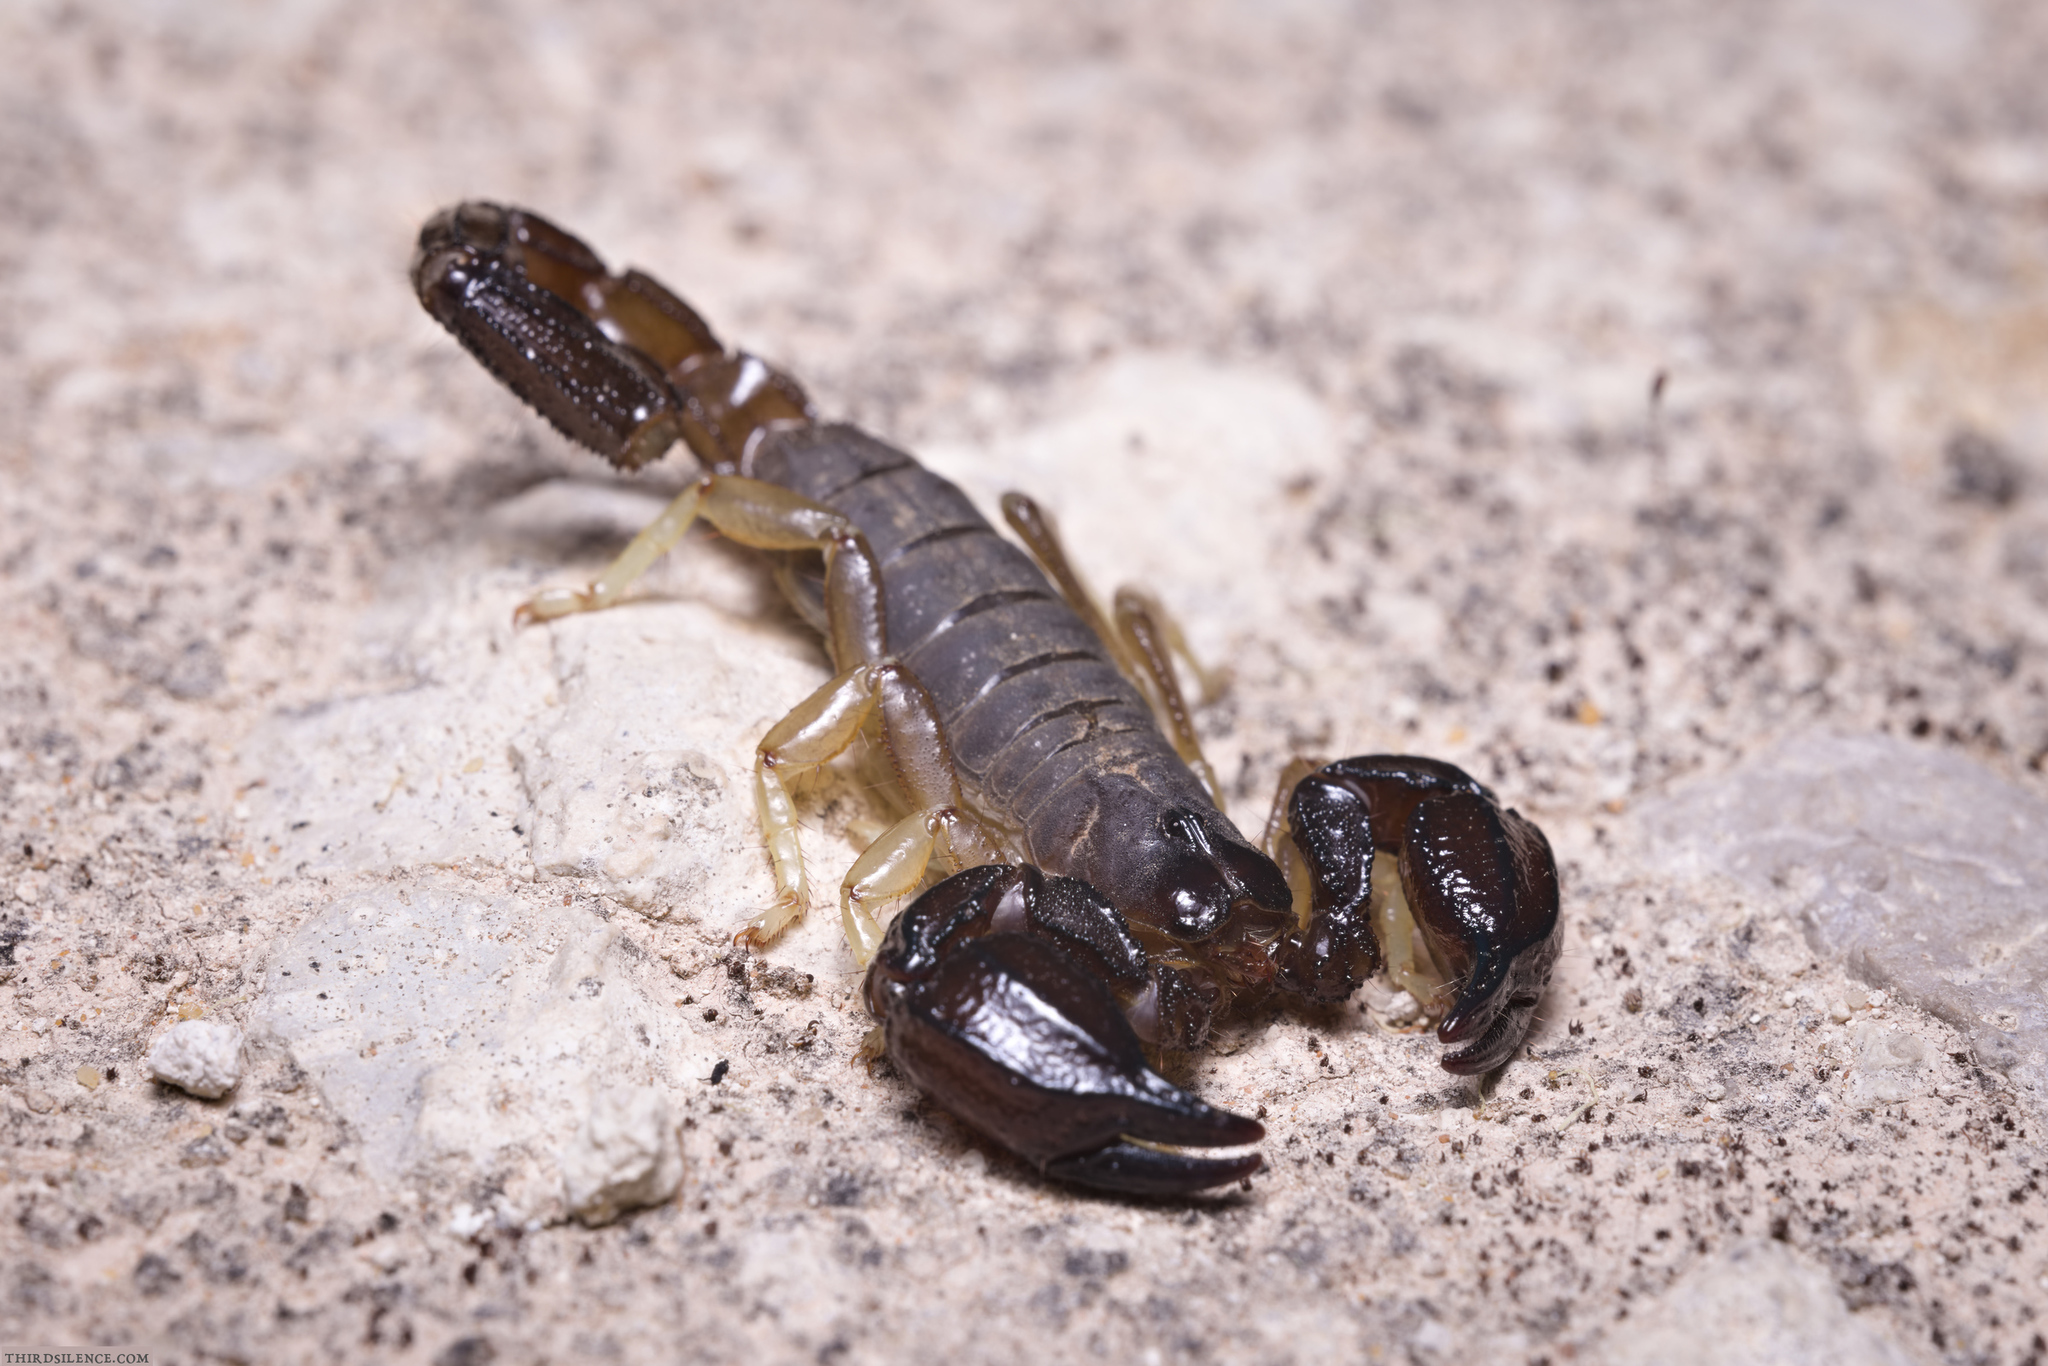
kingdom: Animalia
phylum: Arthropoda
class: Arachnida
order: Scorpiones
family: Scorpionidae
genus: Urodacus
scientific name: Urodacus manicatus
